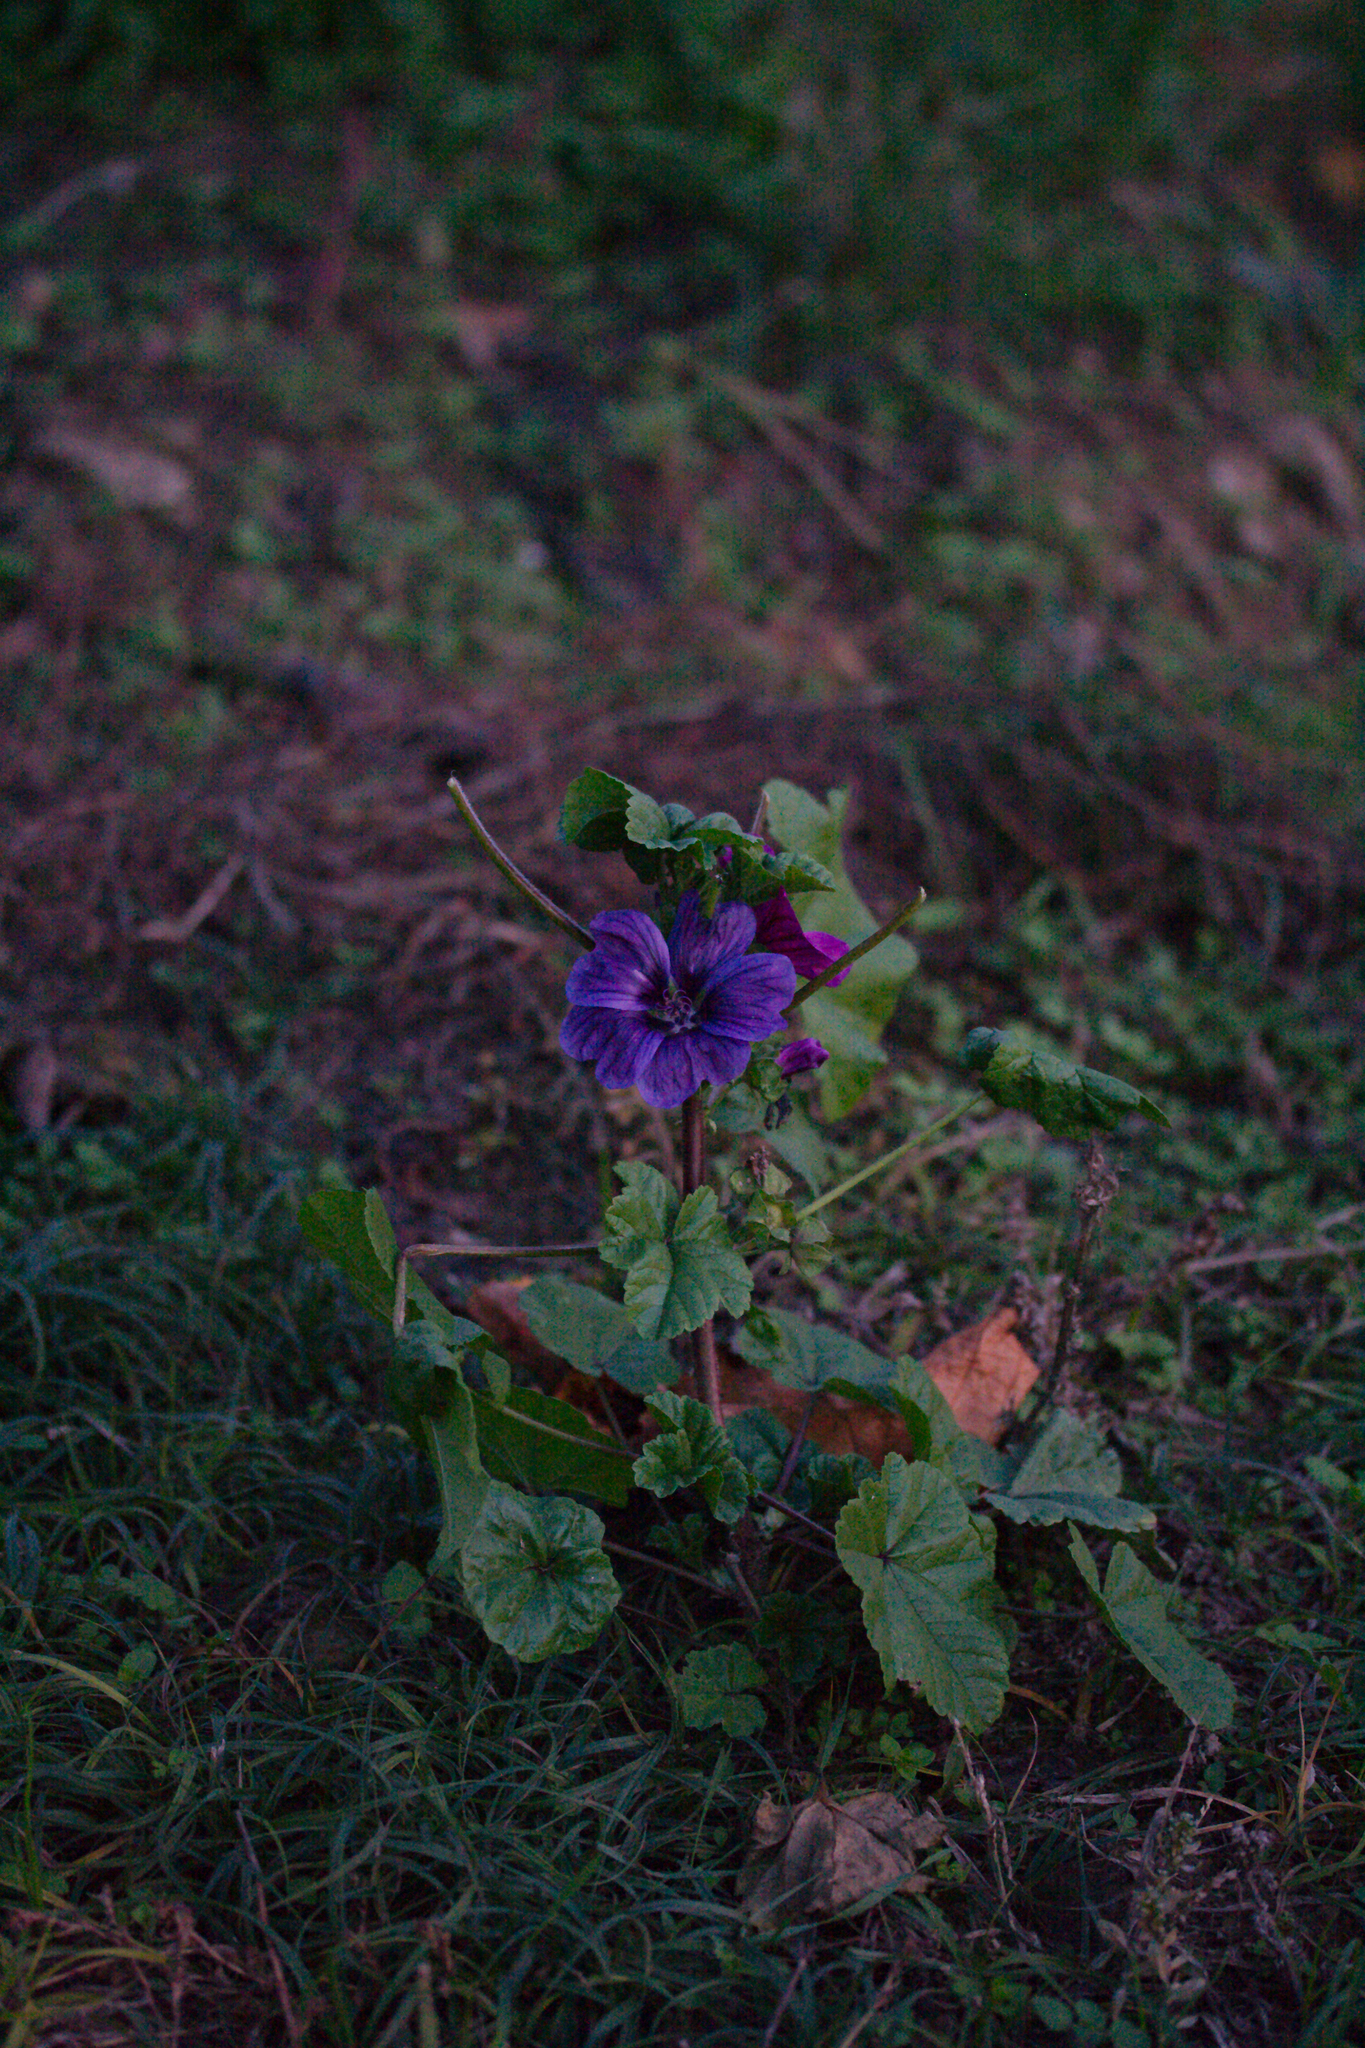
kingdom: Plantae
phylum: Tracheophyta
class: Magnoliopsida
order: Malvales
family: Malvaceae
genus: Malva
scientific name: Malva sylvestris
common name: Common mallow
